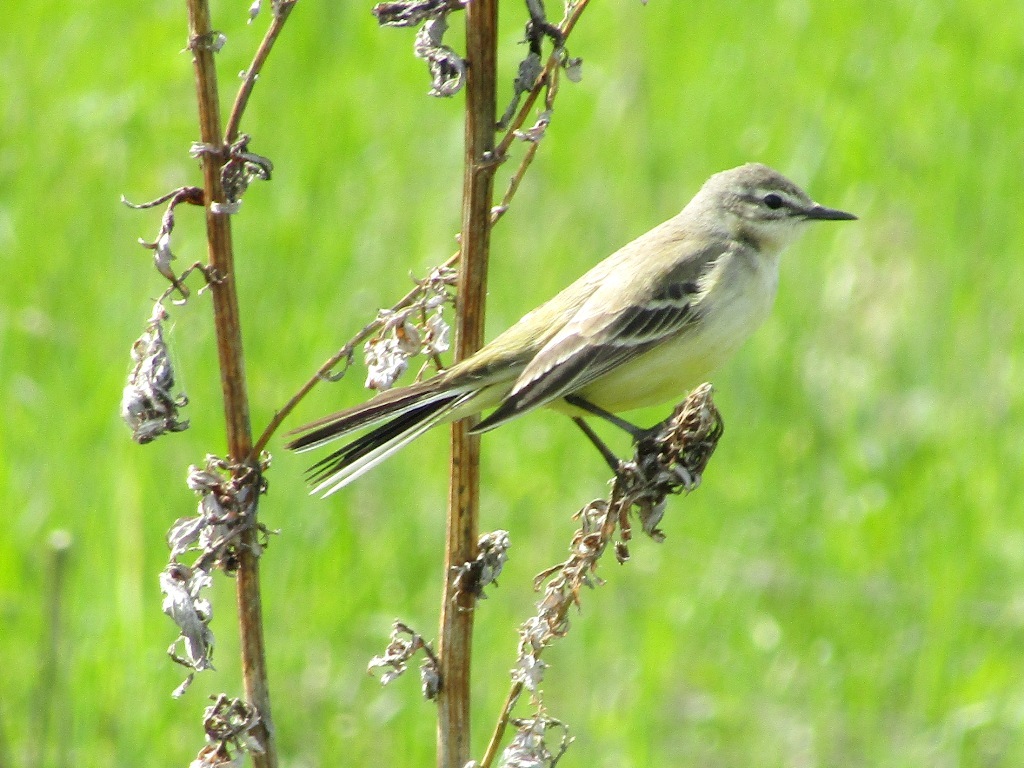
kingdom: Animalia
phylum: Chordata
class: Aves
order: Passeriformes
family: Motacillidae
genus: Motacilla
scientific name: Motacilla flava
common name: Western yellow wagtail
